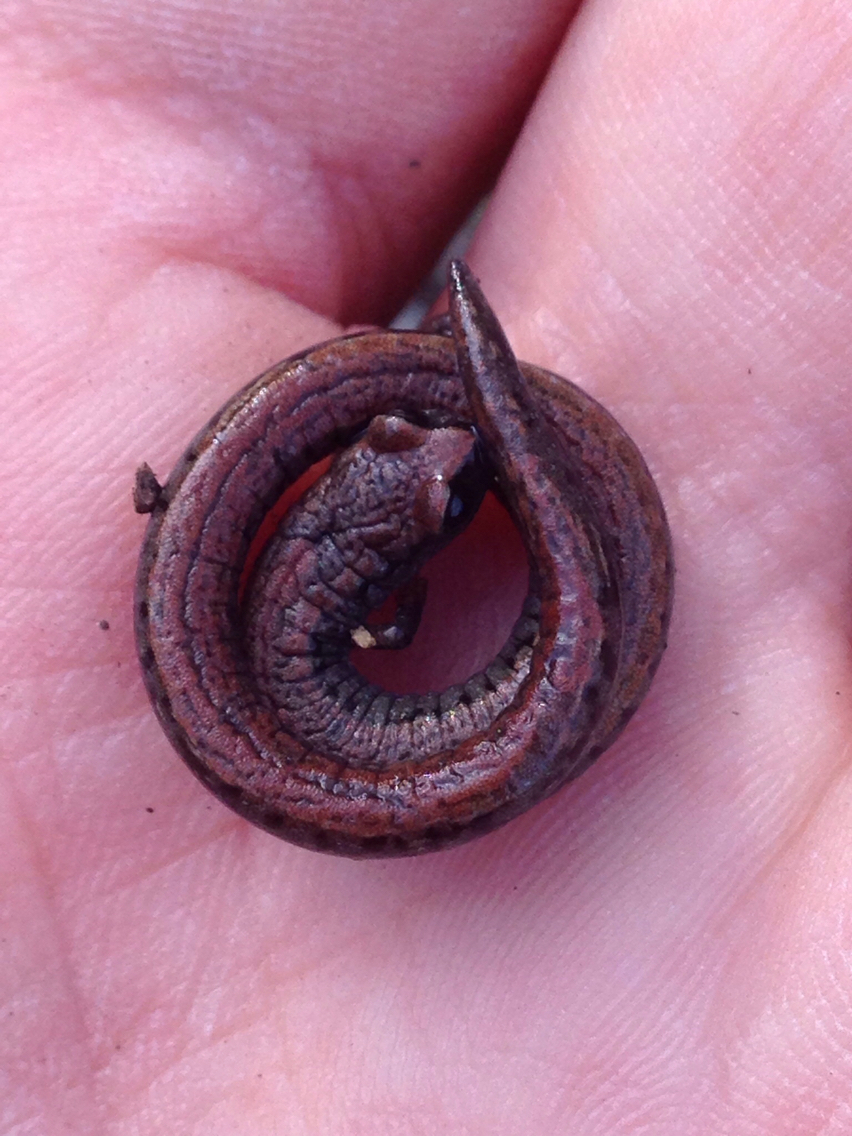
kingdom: Animalia
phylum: Chordata
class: Amphibia
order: Caudata
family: Plethodontidae
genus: Batrachoseps
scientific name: Batrachoseps attenuatus
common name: California slender salamander
